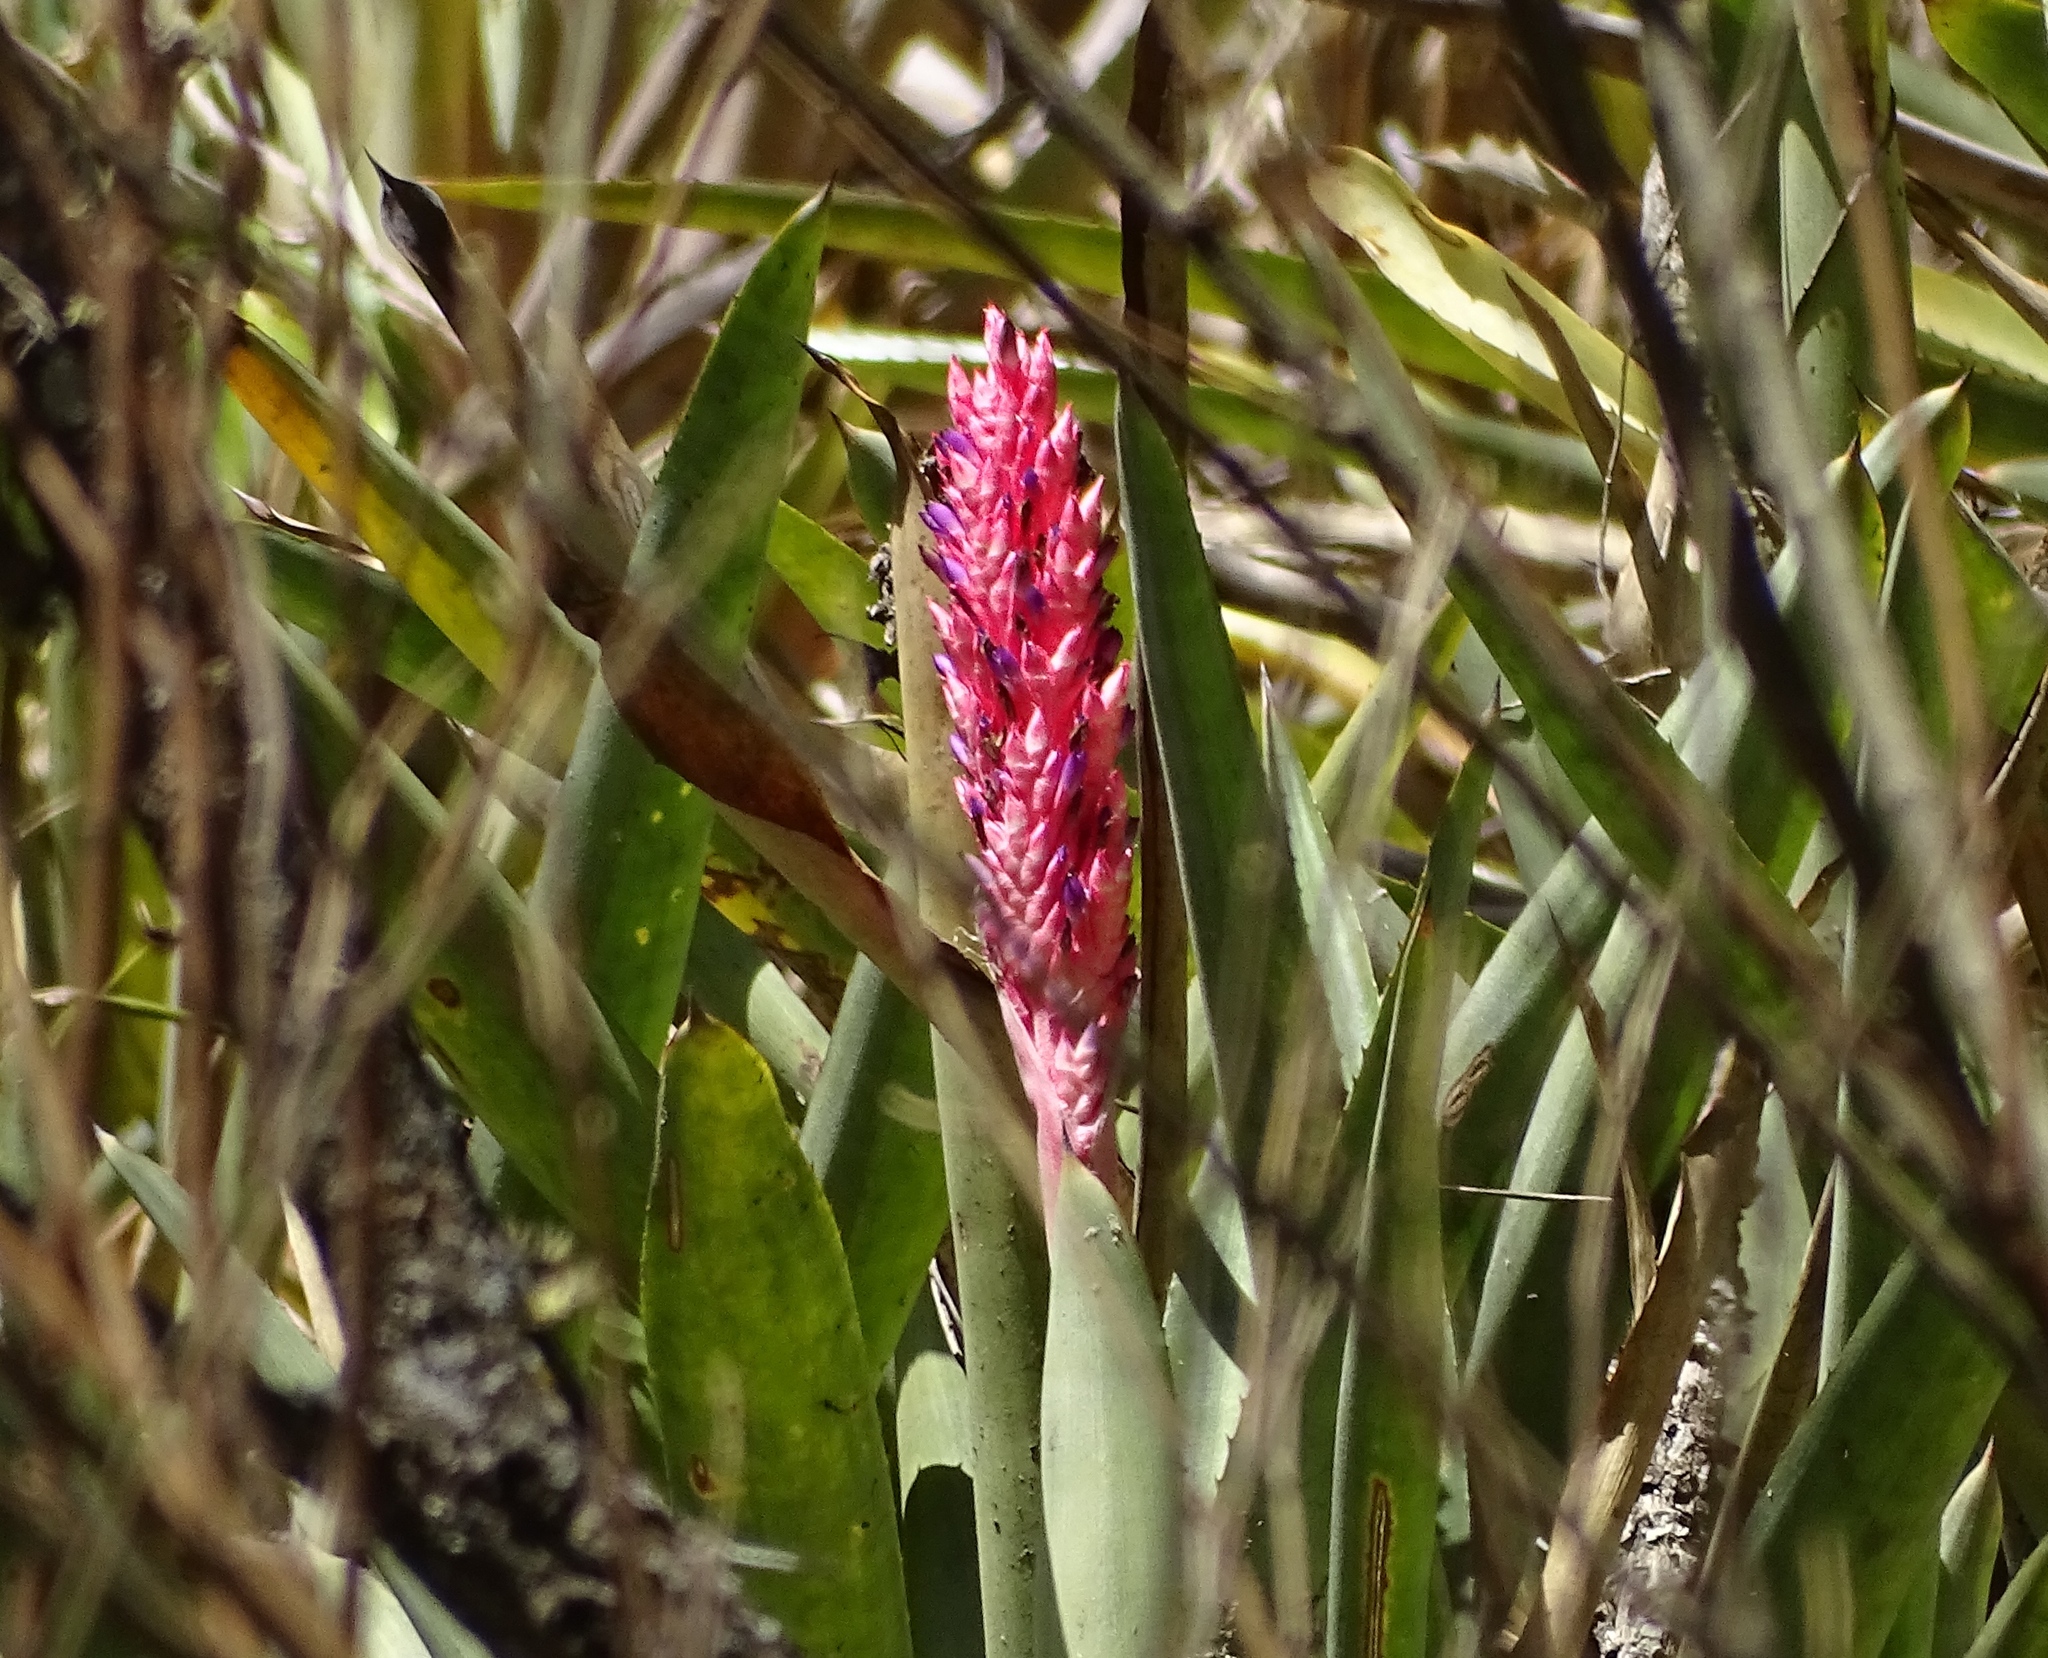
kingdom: Plantae
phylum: Tracheophyta
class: Liliopsida
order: Poales
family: Bromeliaceae
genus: Aechmea
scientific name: Aechmea distichantha
